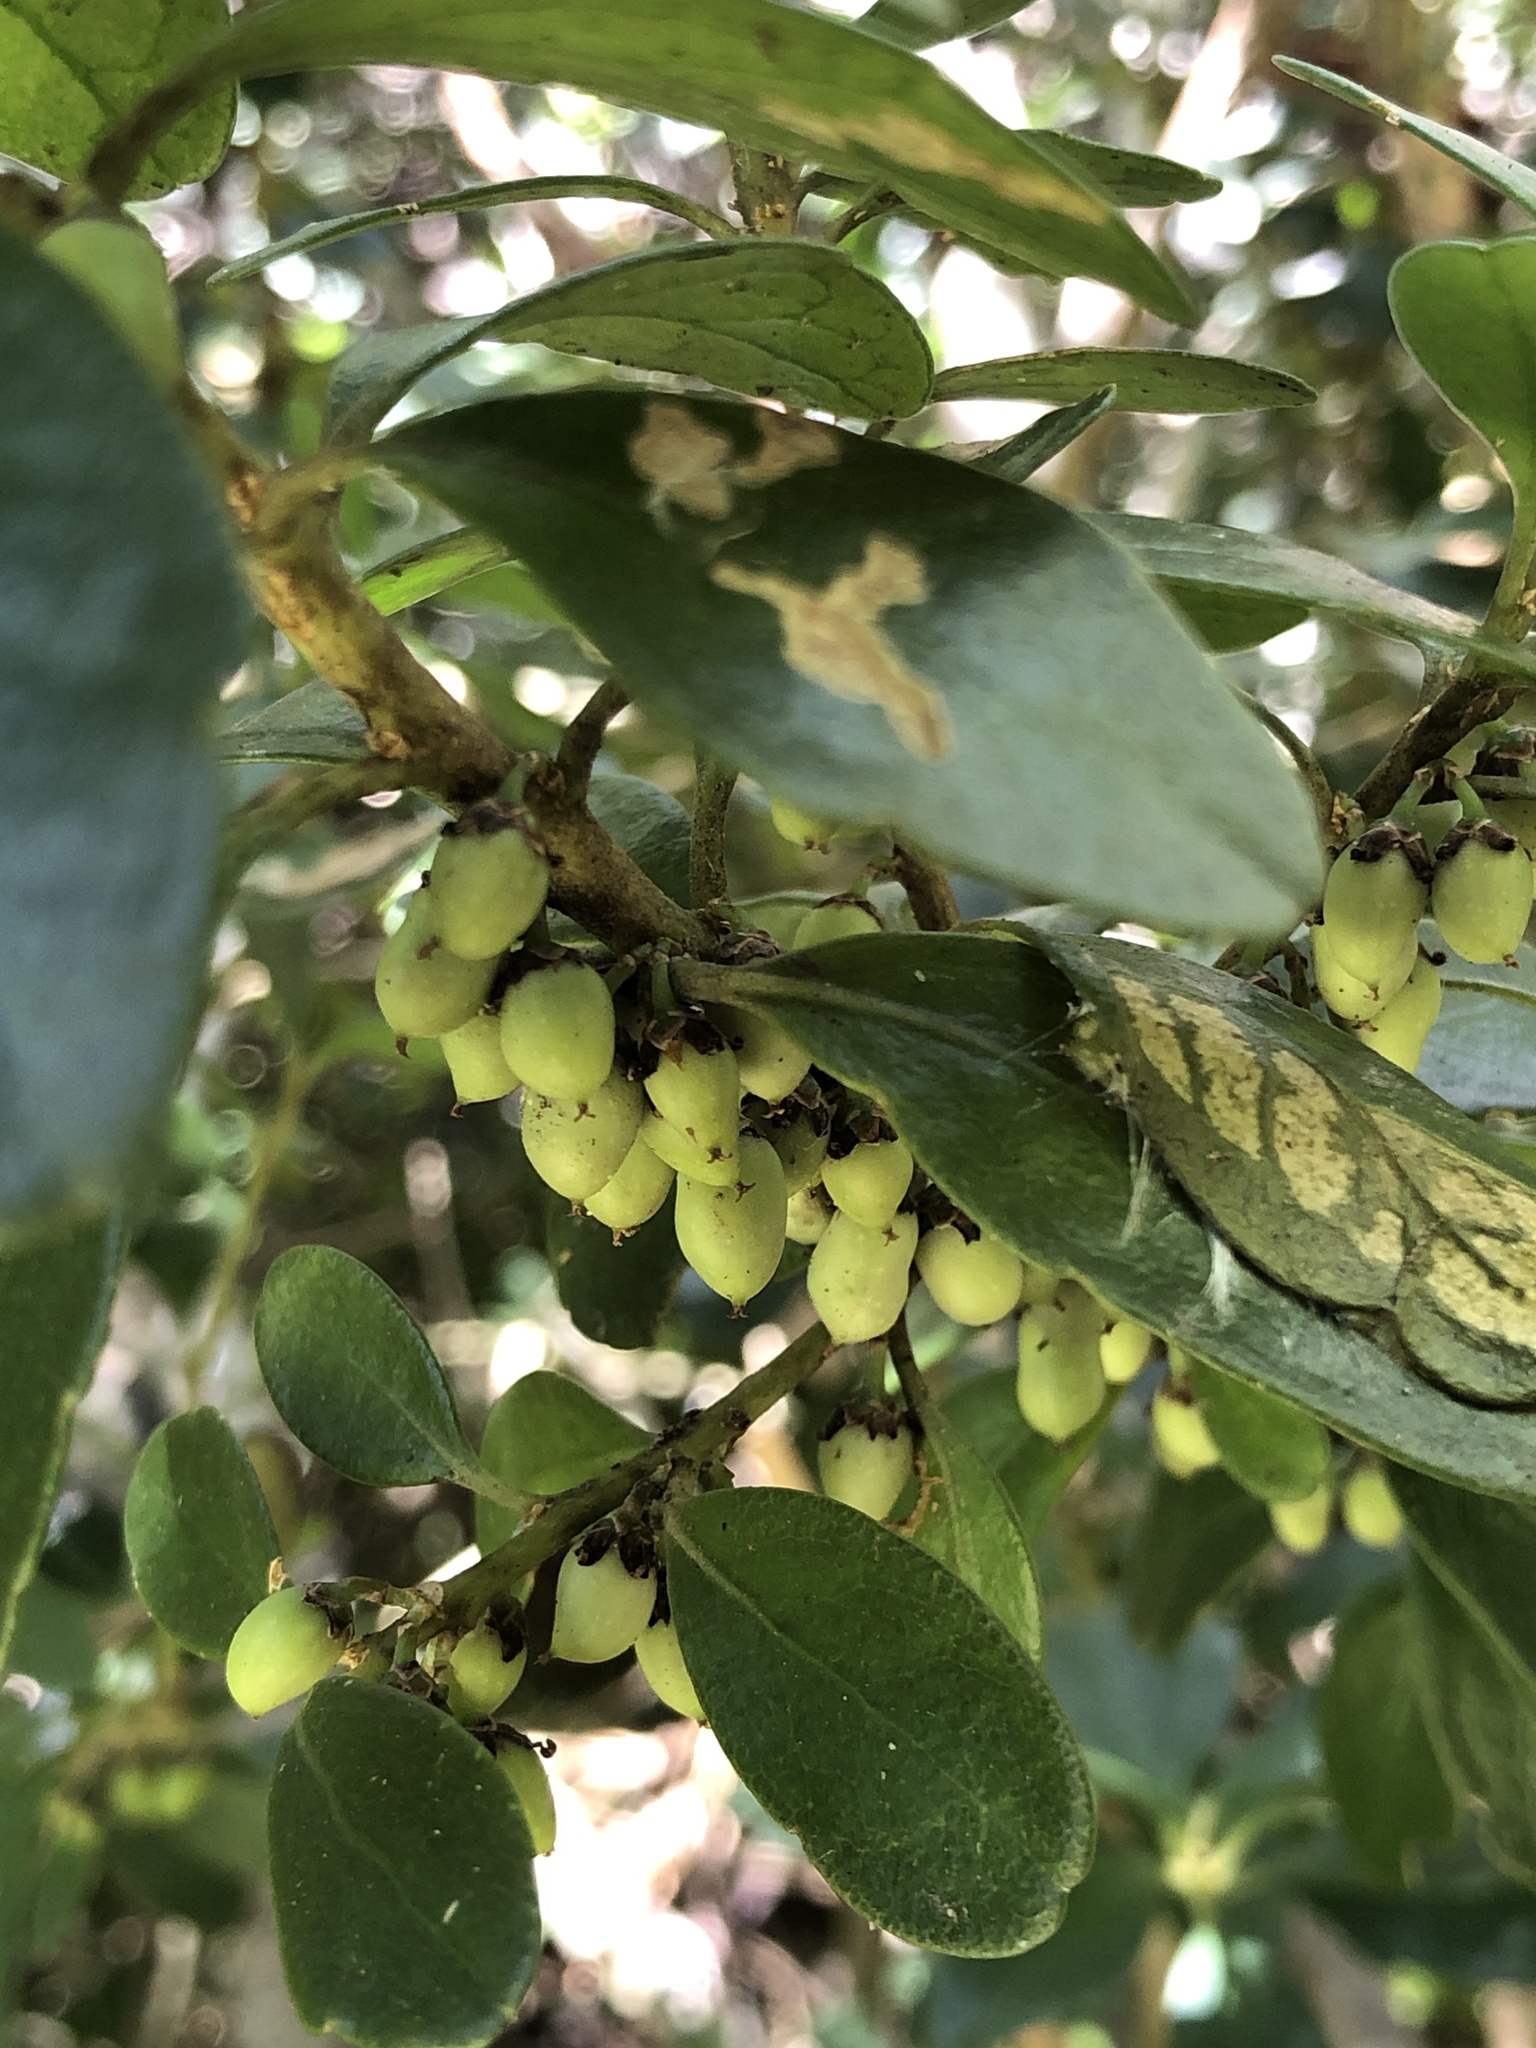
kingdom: Plantae
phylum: Tracheophyta
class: Magnoliopsida
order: Malpighiales
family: Violaceae
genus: Melicytus
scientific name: Melicytus orarius
